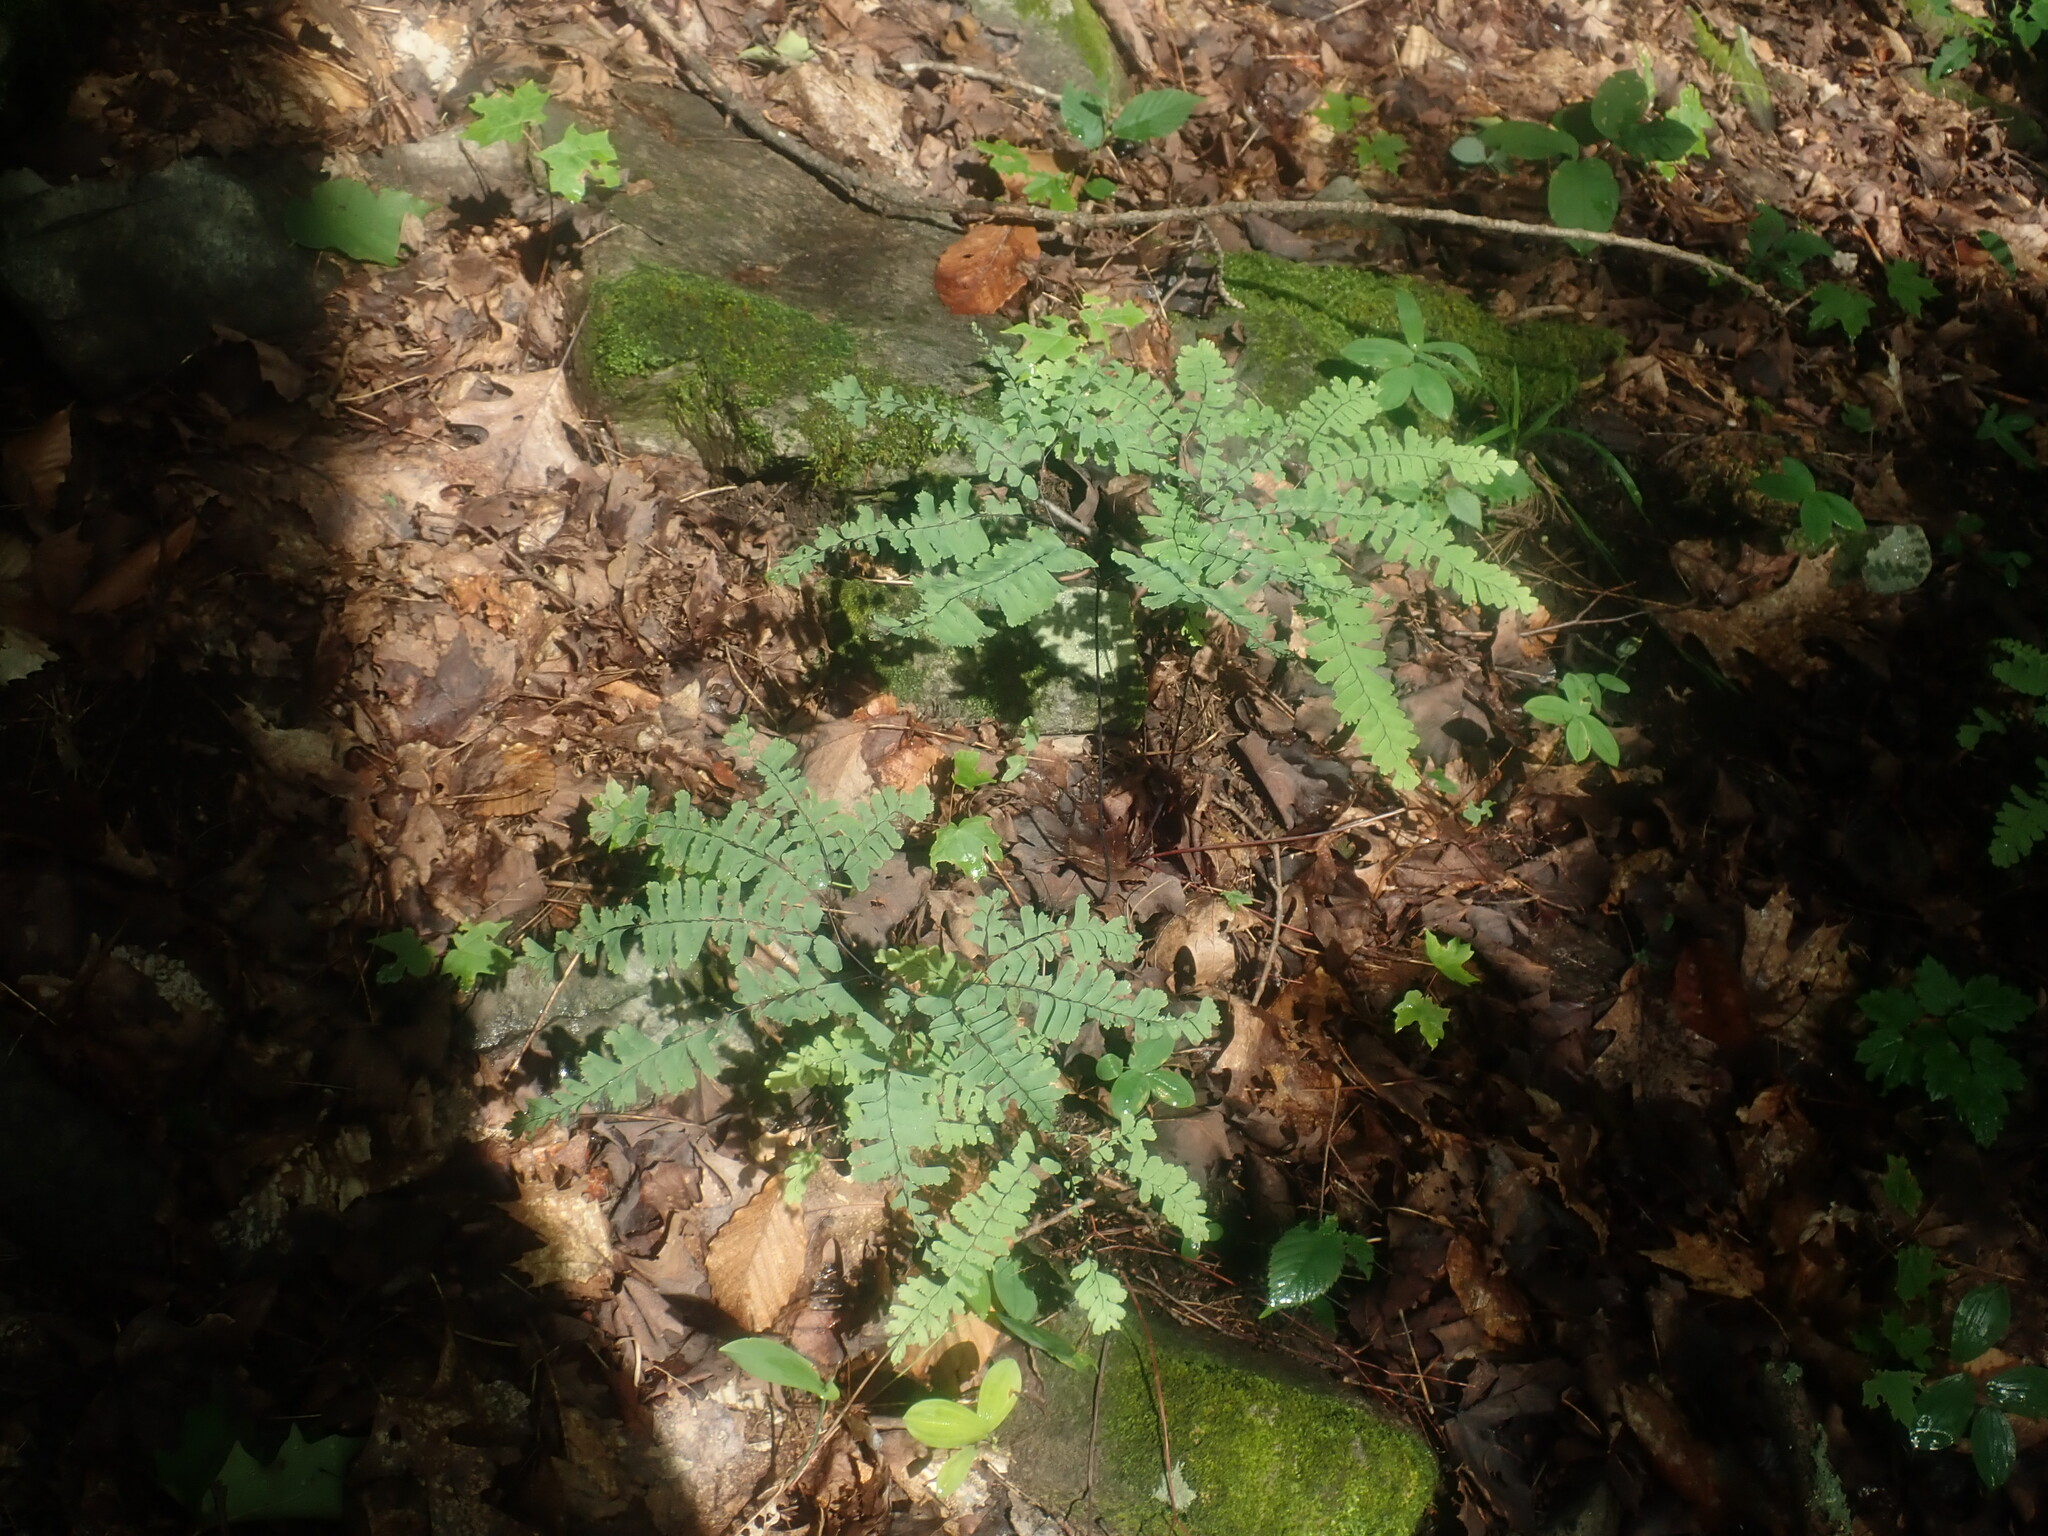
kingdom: Plantae
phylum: Tracheophyta
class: Polypodiopsida
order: Polypodiales
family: Pteridaceae
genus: Adiantum
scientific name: Adiantum pedatum
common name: Five-finger fern
